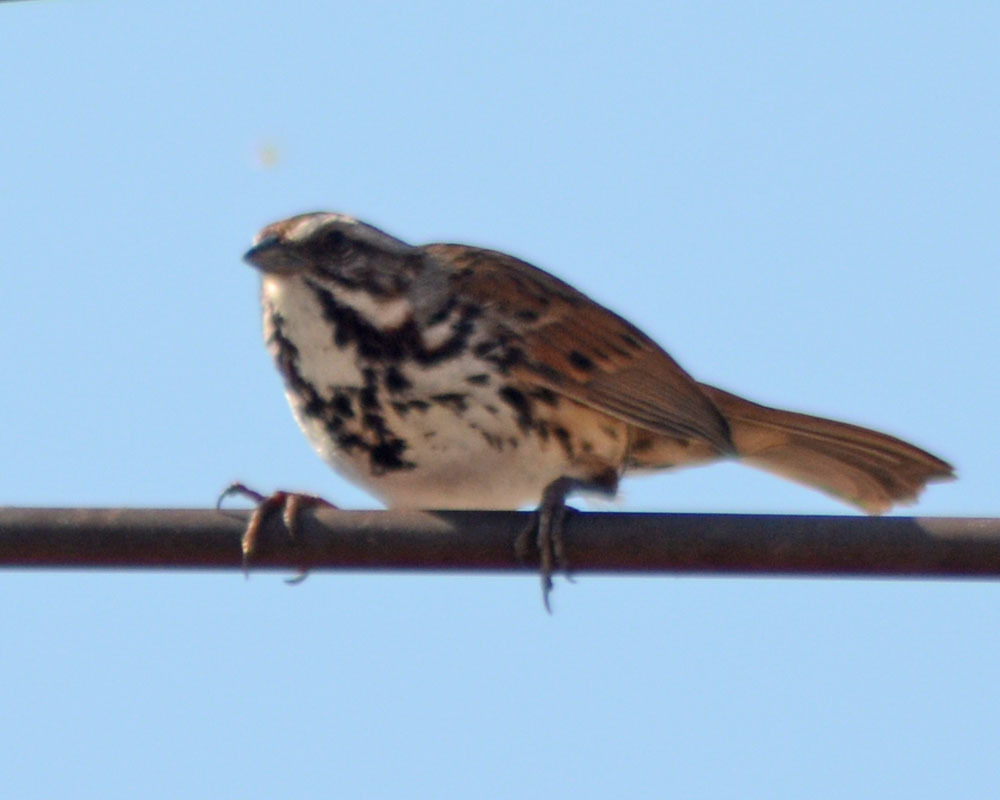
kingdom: Animalia
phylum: Chordata
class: Aves
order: Passeriformes
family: Passerellidae
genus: Melospiza
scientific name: Melospiza melodia
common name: Song sparrow
